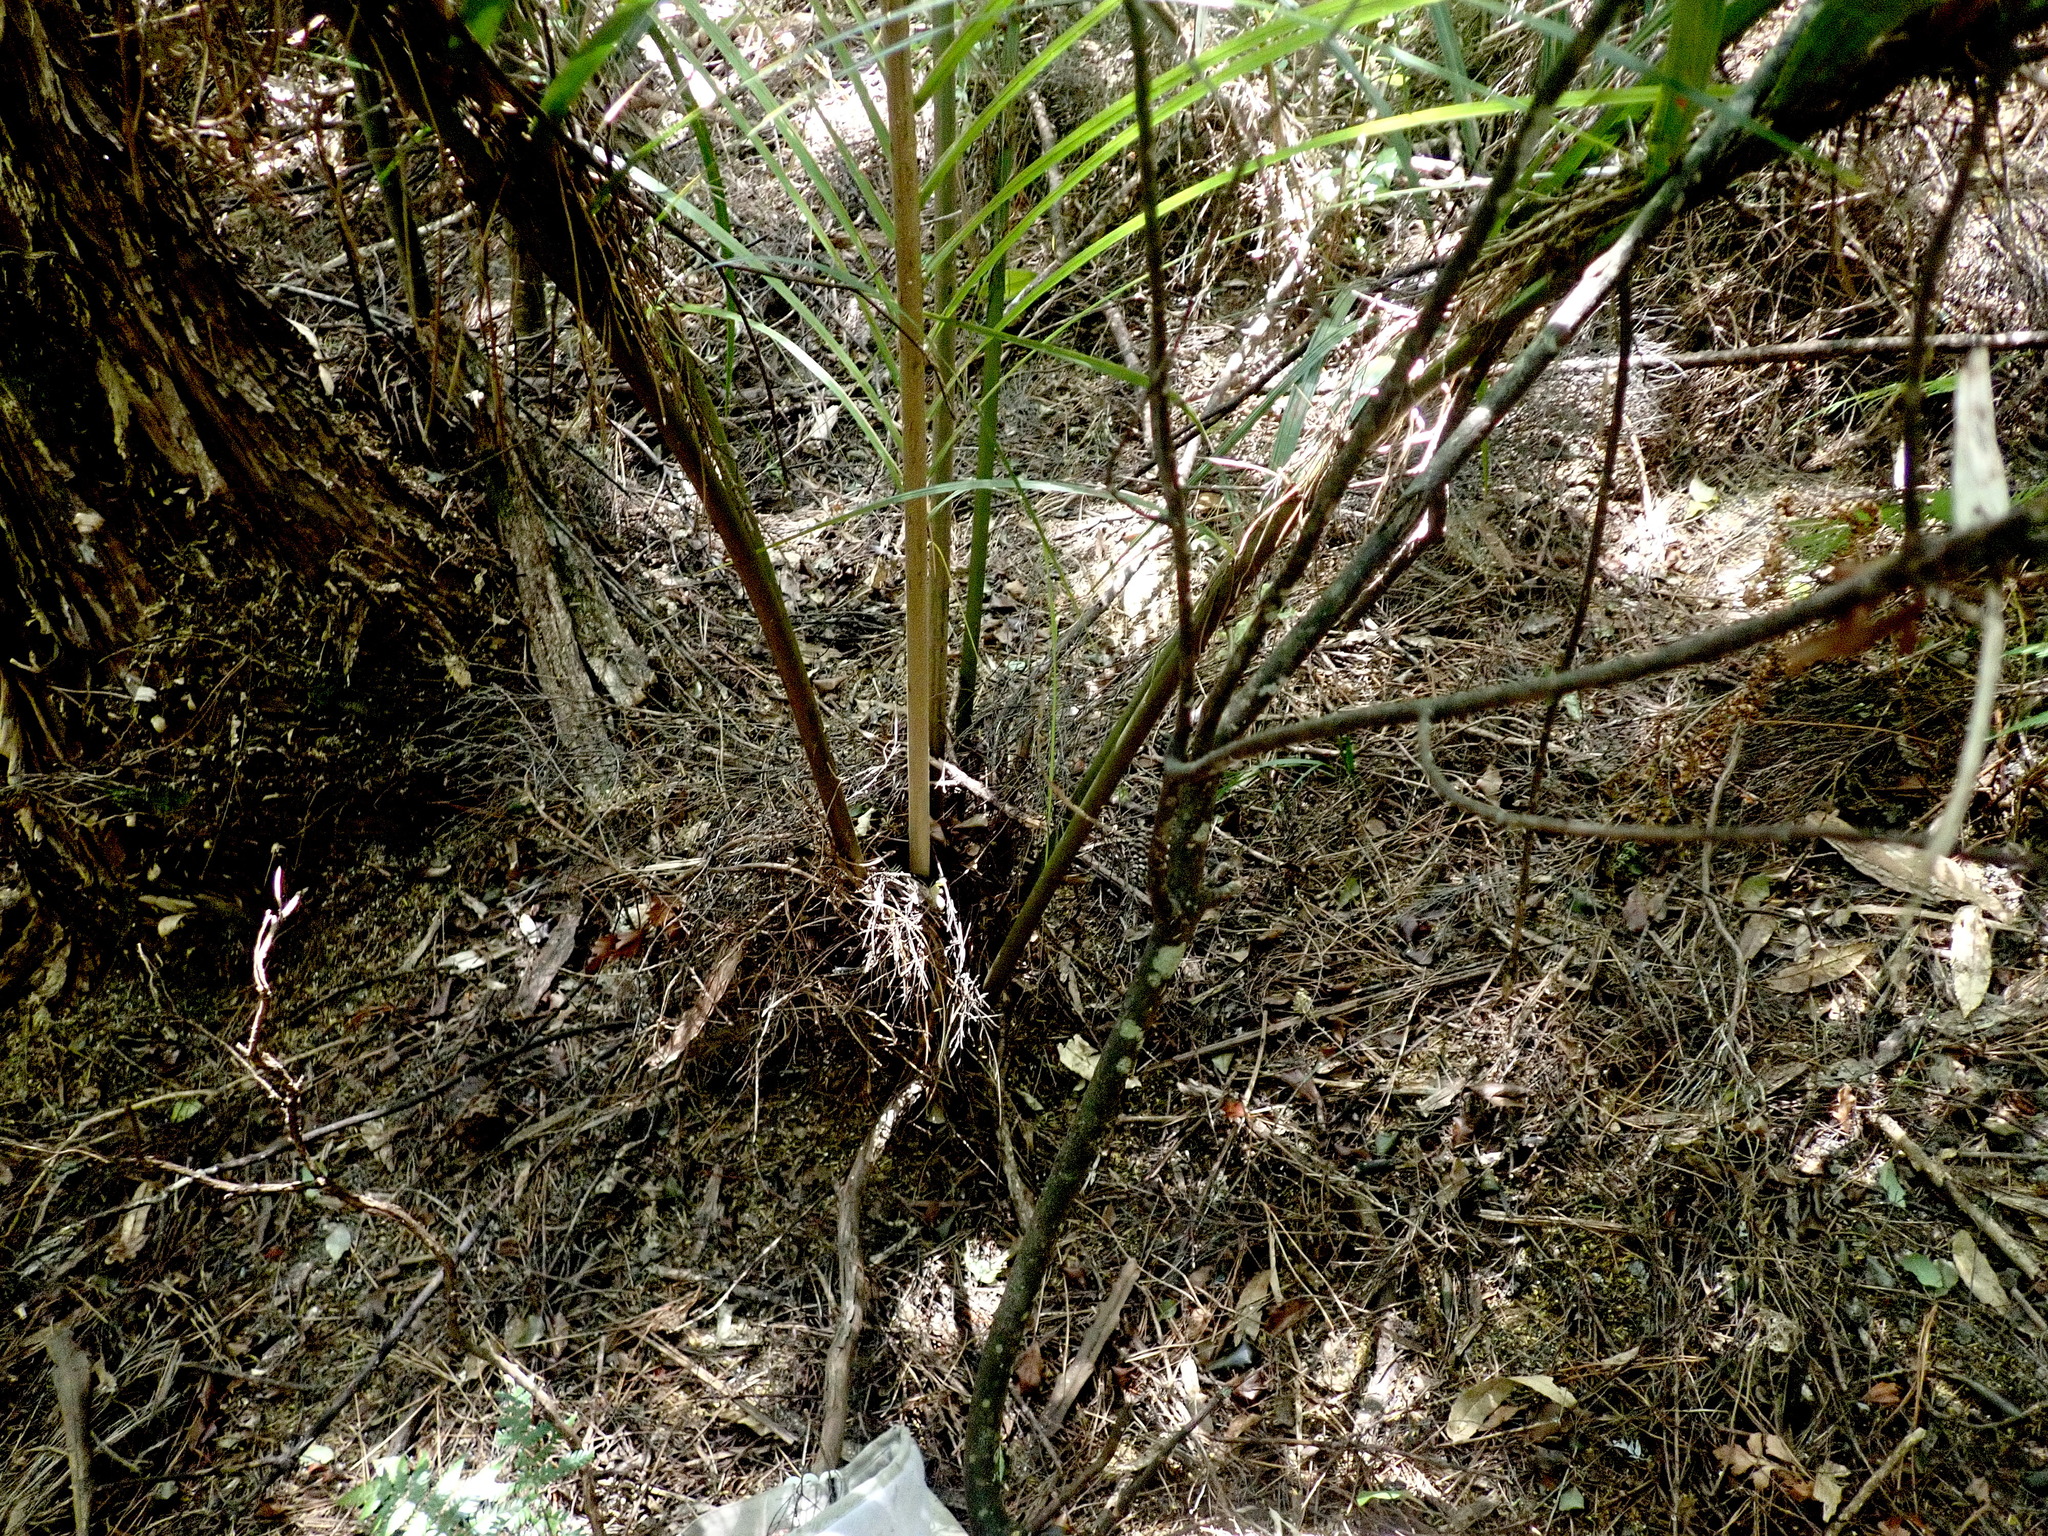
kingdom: Plantae
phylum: Tracheophyta
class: Liliopsida
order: Arecales
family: Arecaceae
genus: Rhopalostylis
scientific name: Rhopalostylis sapida
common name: Feather-duster palm
